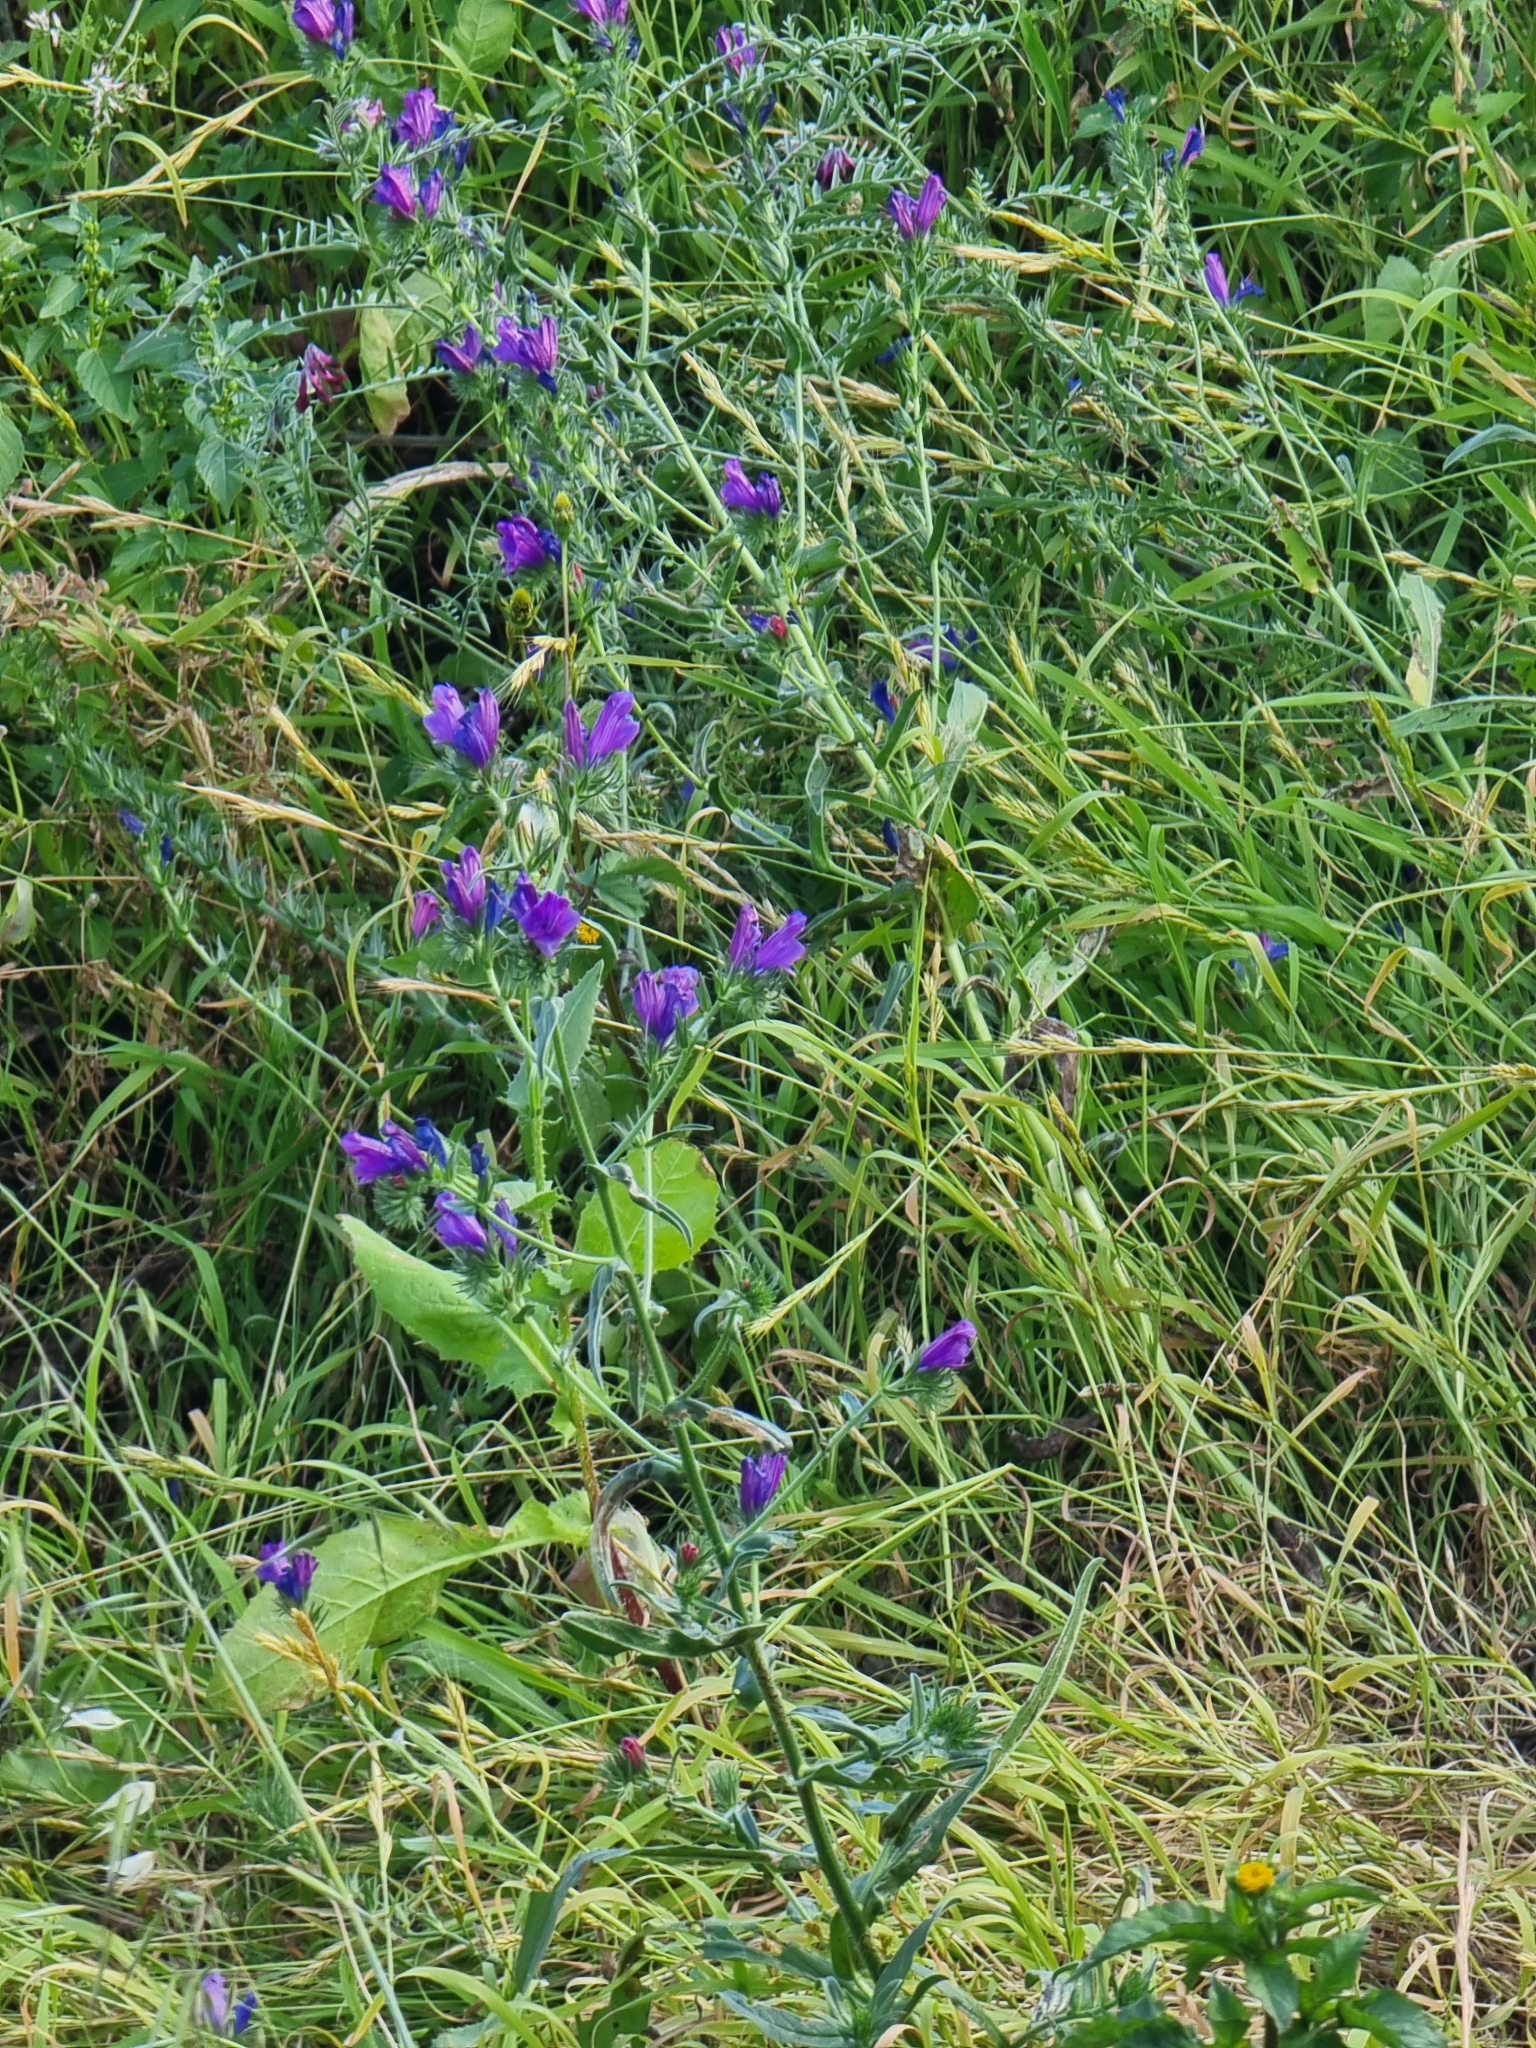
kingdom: Plantae
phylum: Tracheophyta
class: Magnoliopsida
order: Boraginales
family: Boraginaceae
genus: Echium
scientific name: Echium plantagineum
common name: Purple viper's-bugloss
